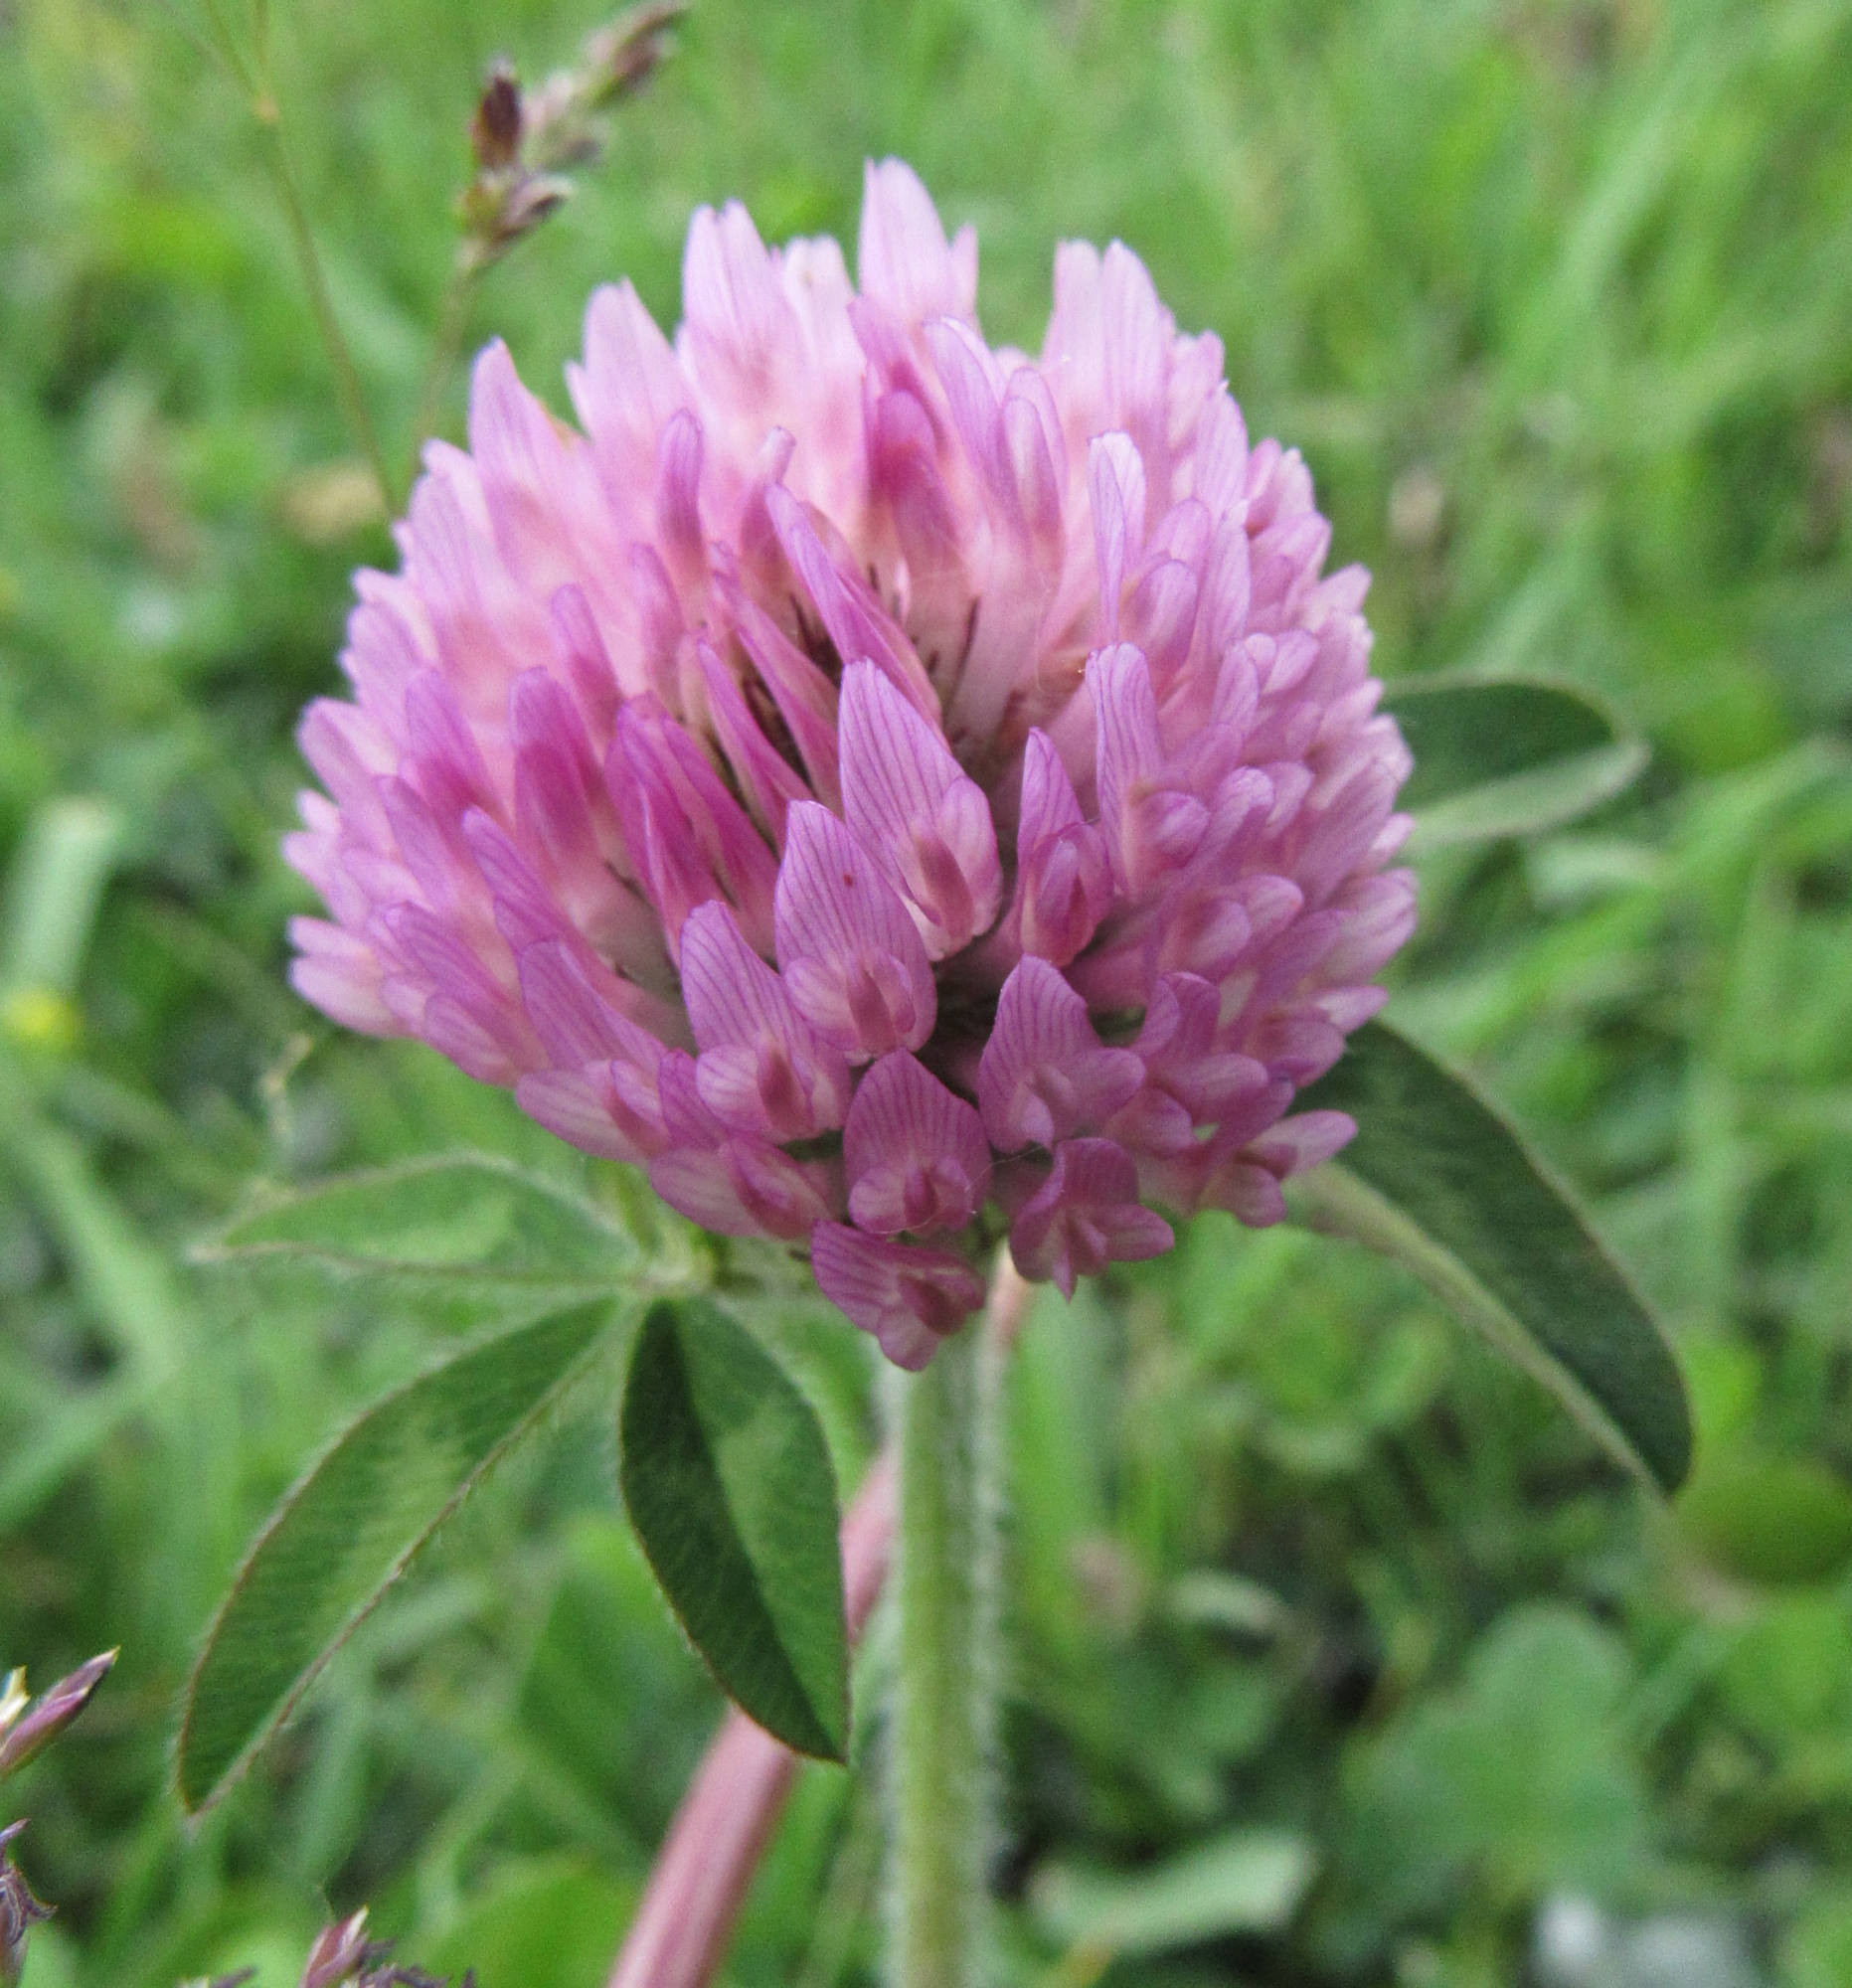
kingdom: Plantae
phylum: Tracheophyta
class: Magnoliopsida
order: Fabales
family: Fabaceae
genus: Trifolium
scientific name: Trifolium pratense
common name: Red clover
